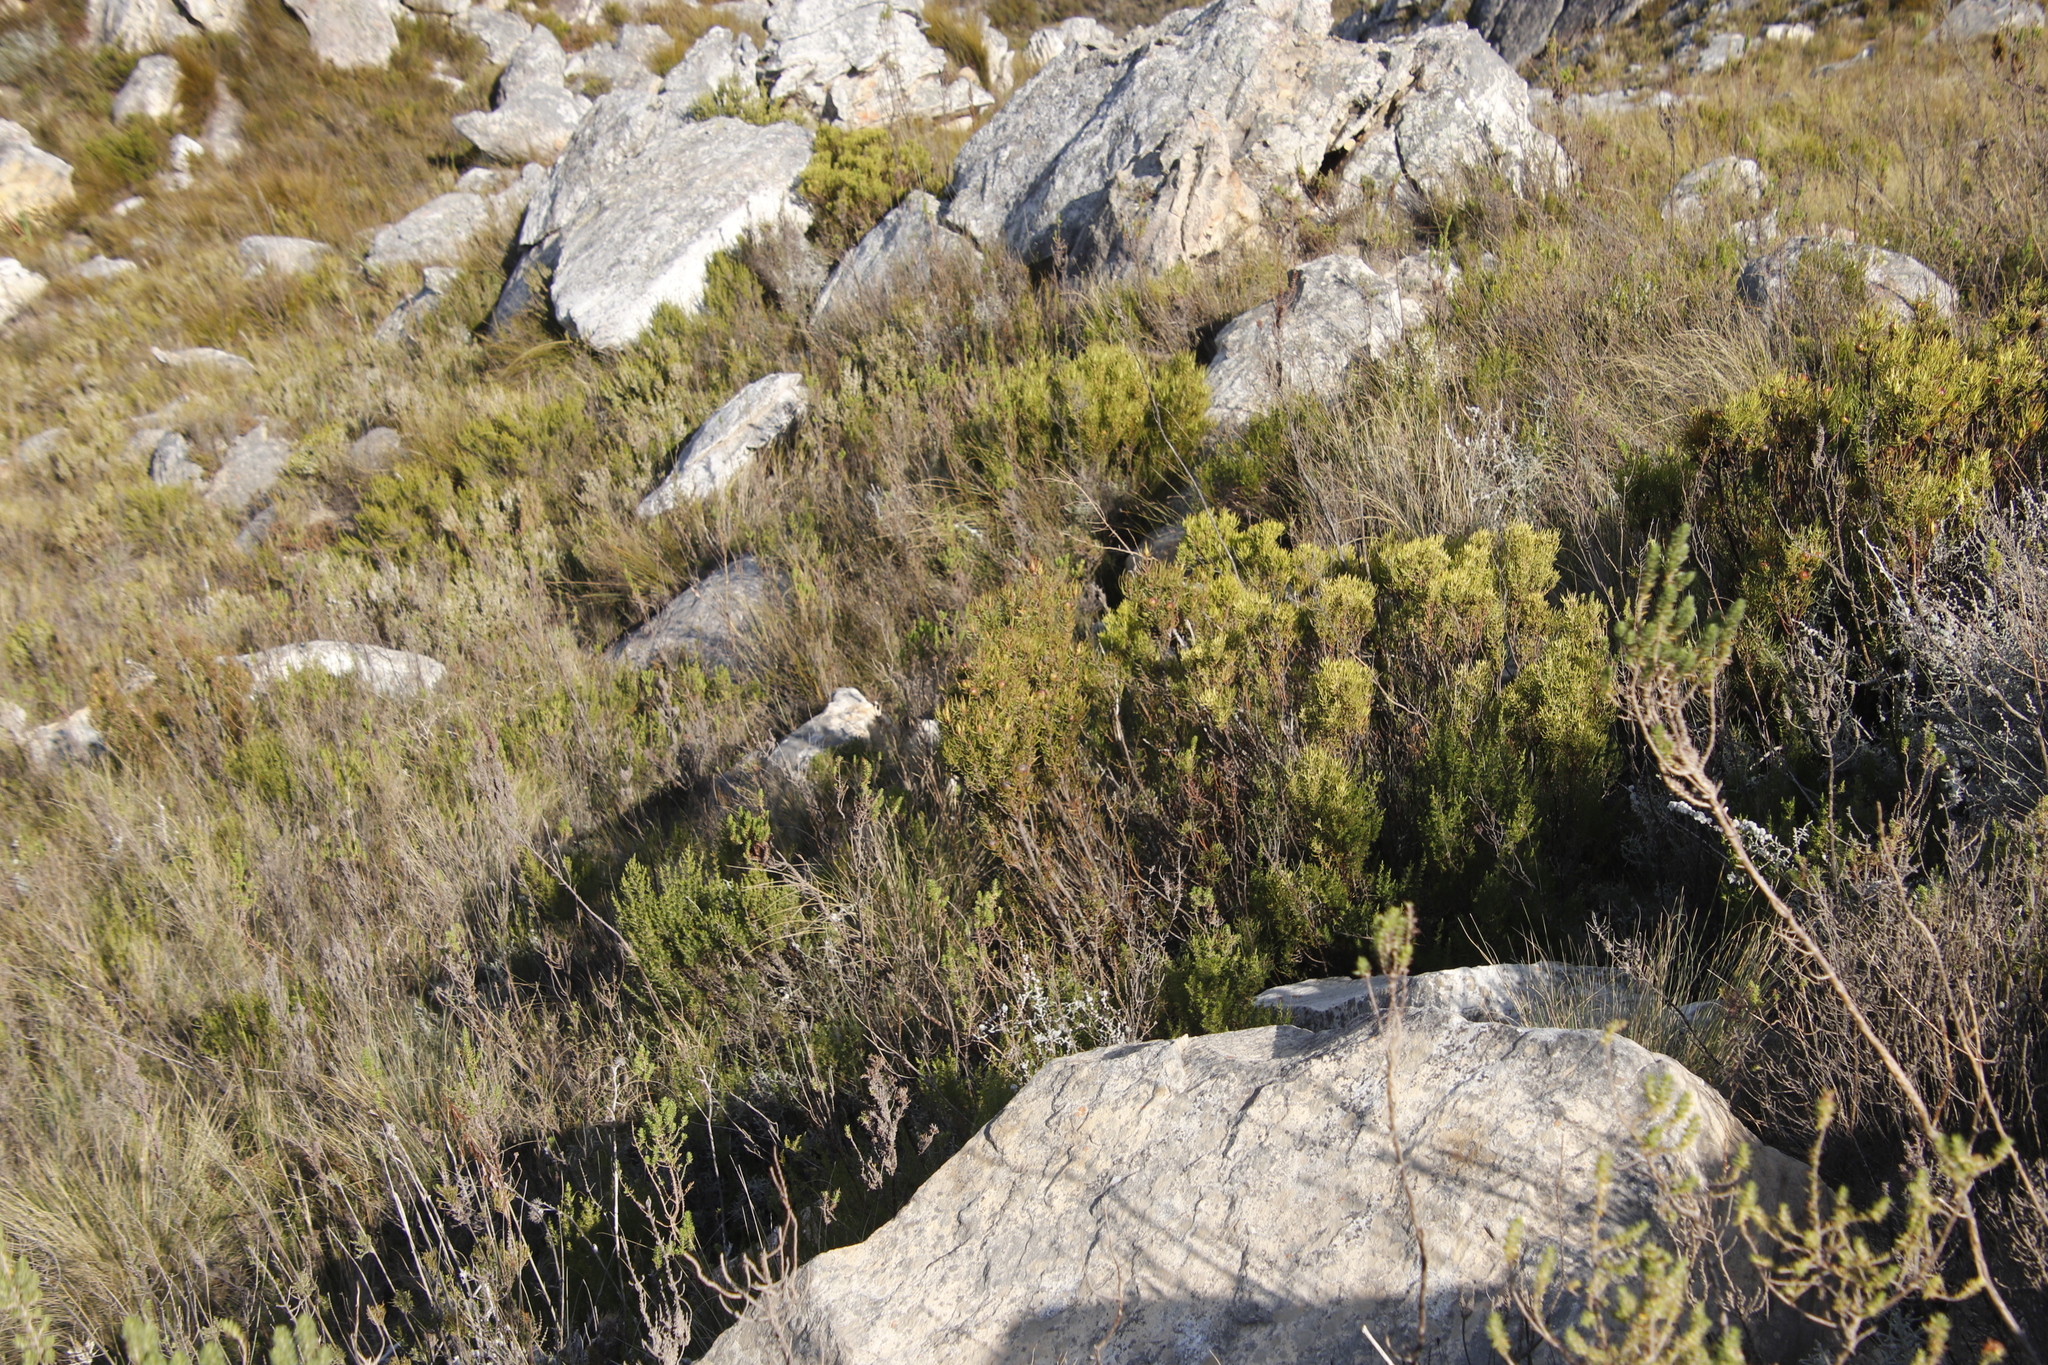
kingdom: Plantae
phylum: Tracheophyta
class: Magnoliopsida
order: Proteales
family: Proteaceae
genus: Leucadendron
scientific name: Leucadendron spissifolium
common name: Spear-leaf conebush
